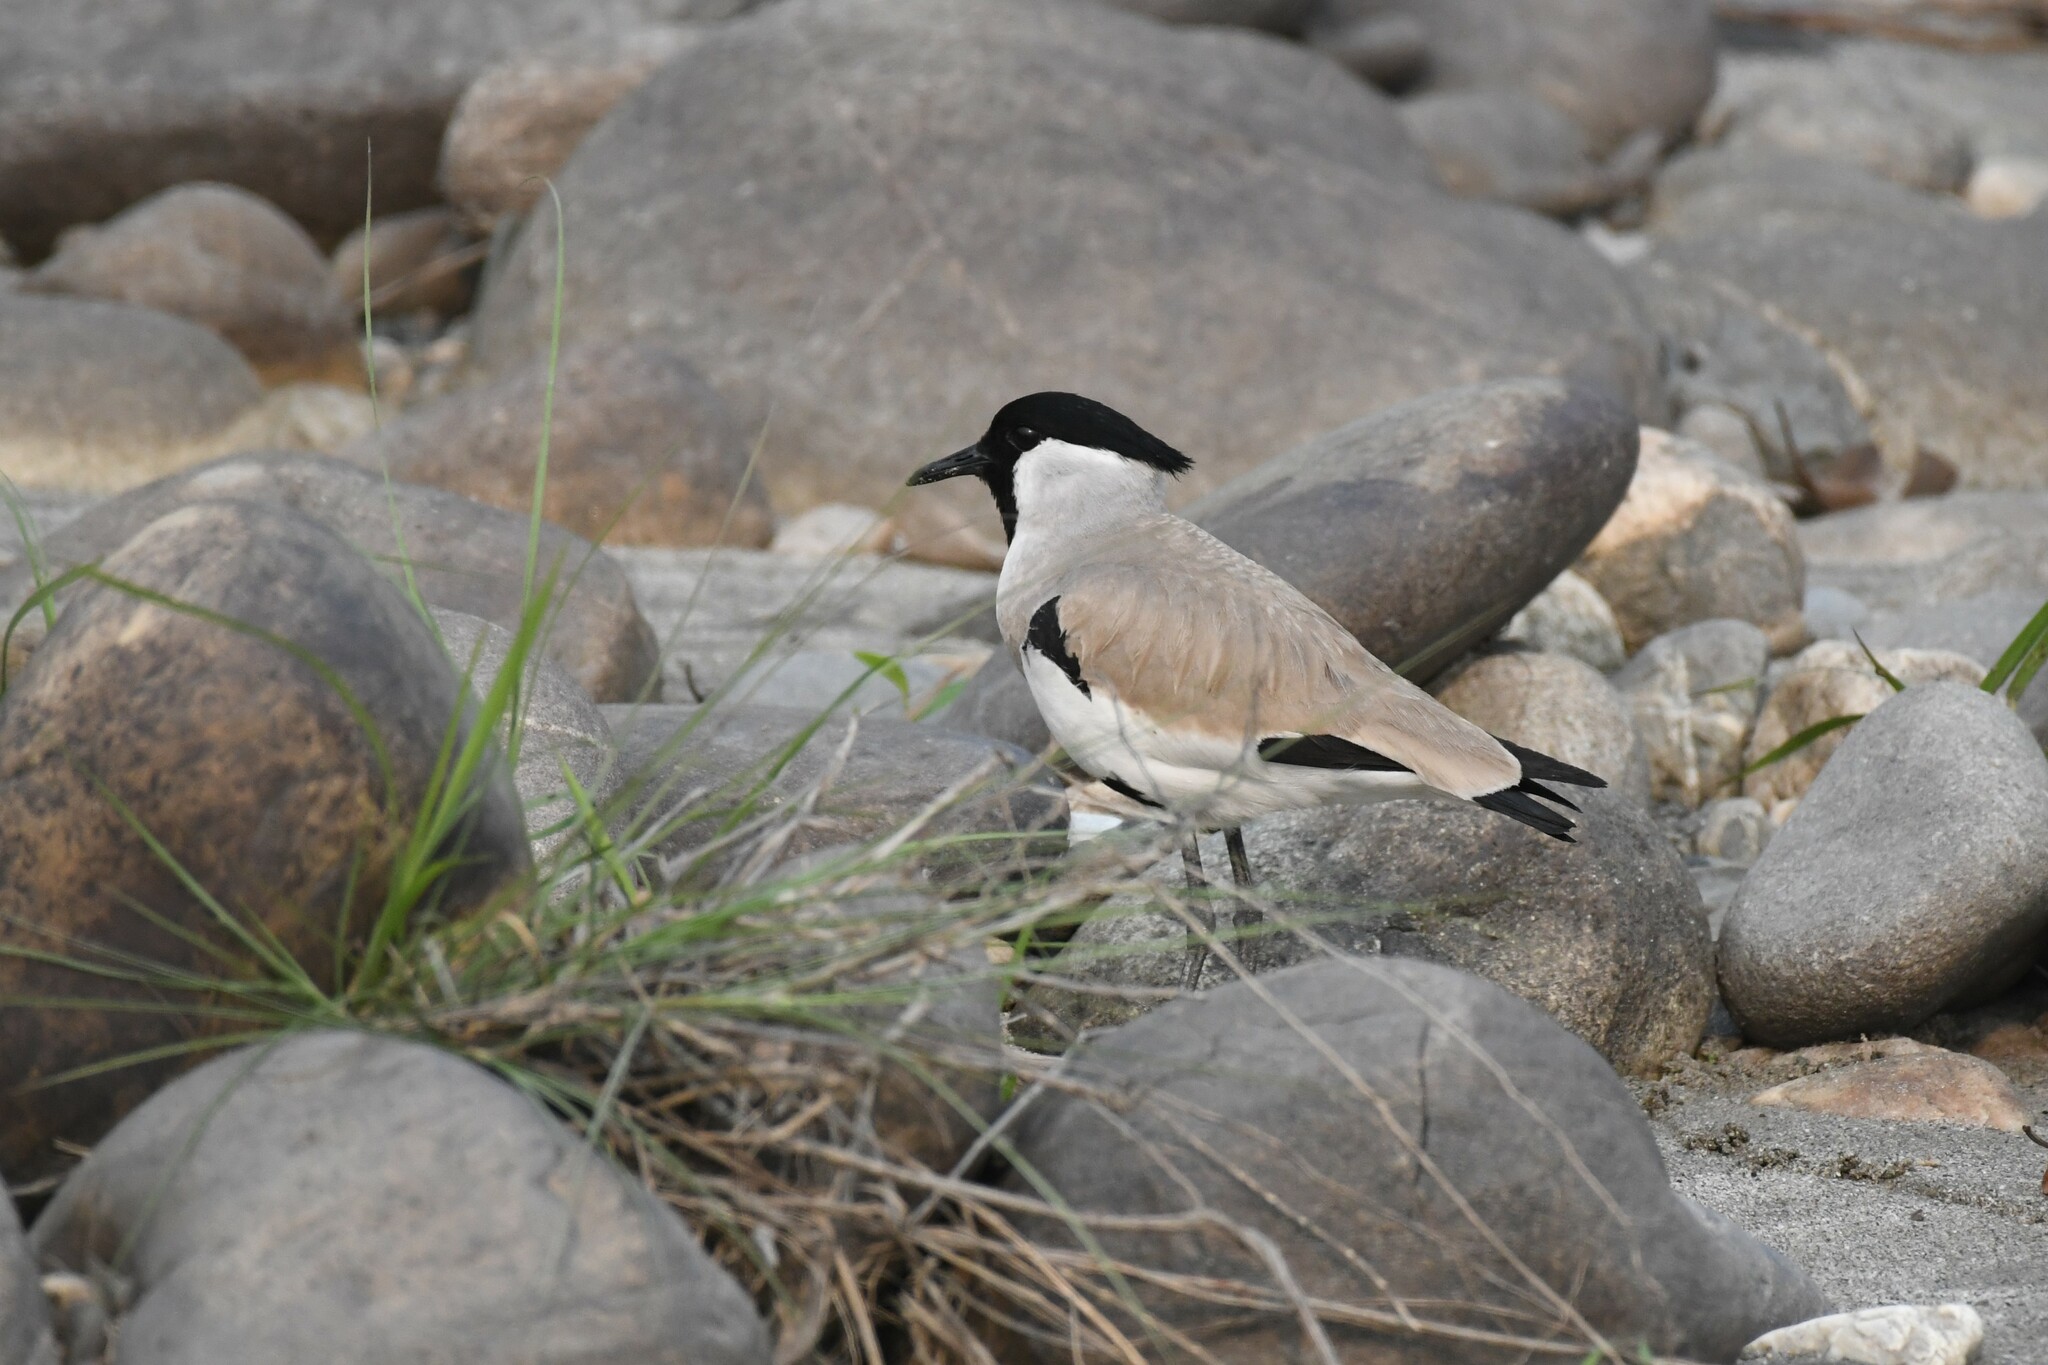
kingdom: Animalia
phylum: Chordata
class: Aves
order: Charadriiformes
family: Charadriidae
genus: Vanellus
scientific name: Vanellus duvaucelii
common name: River lapwing
